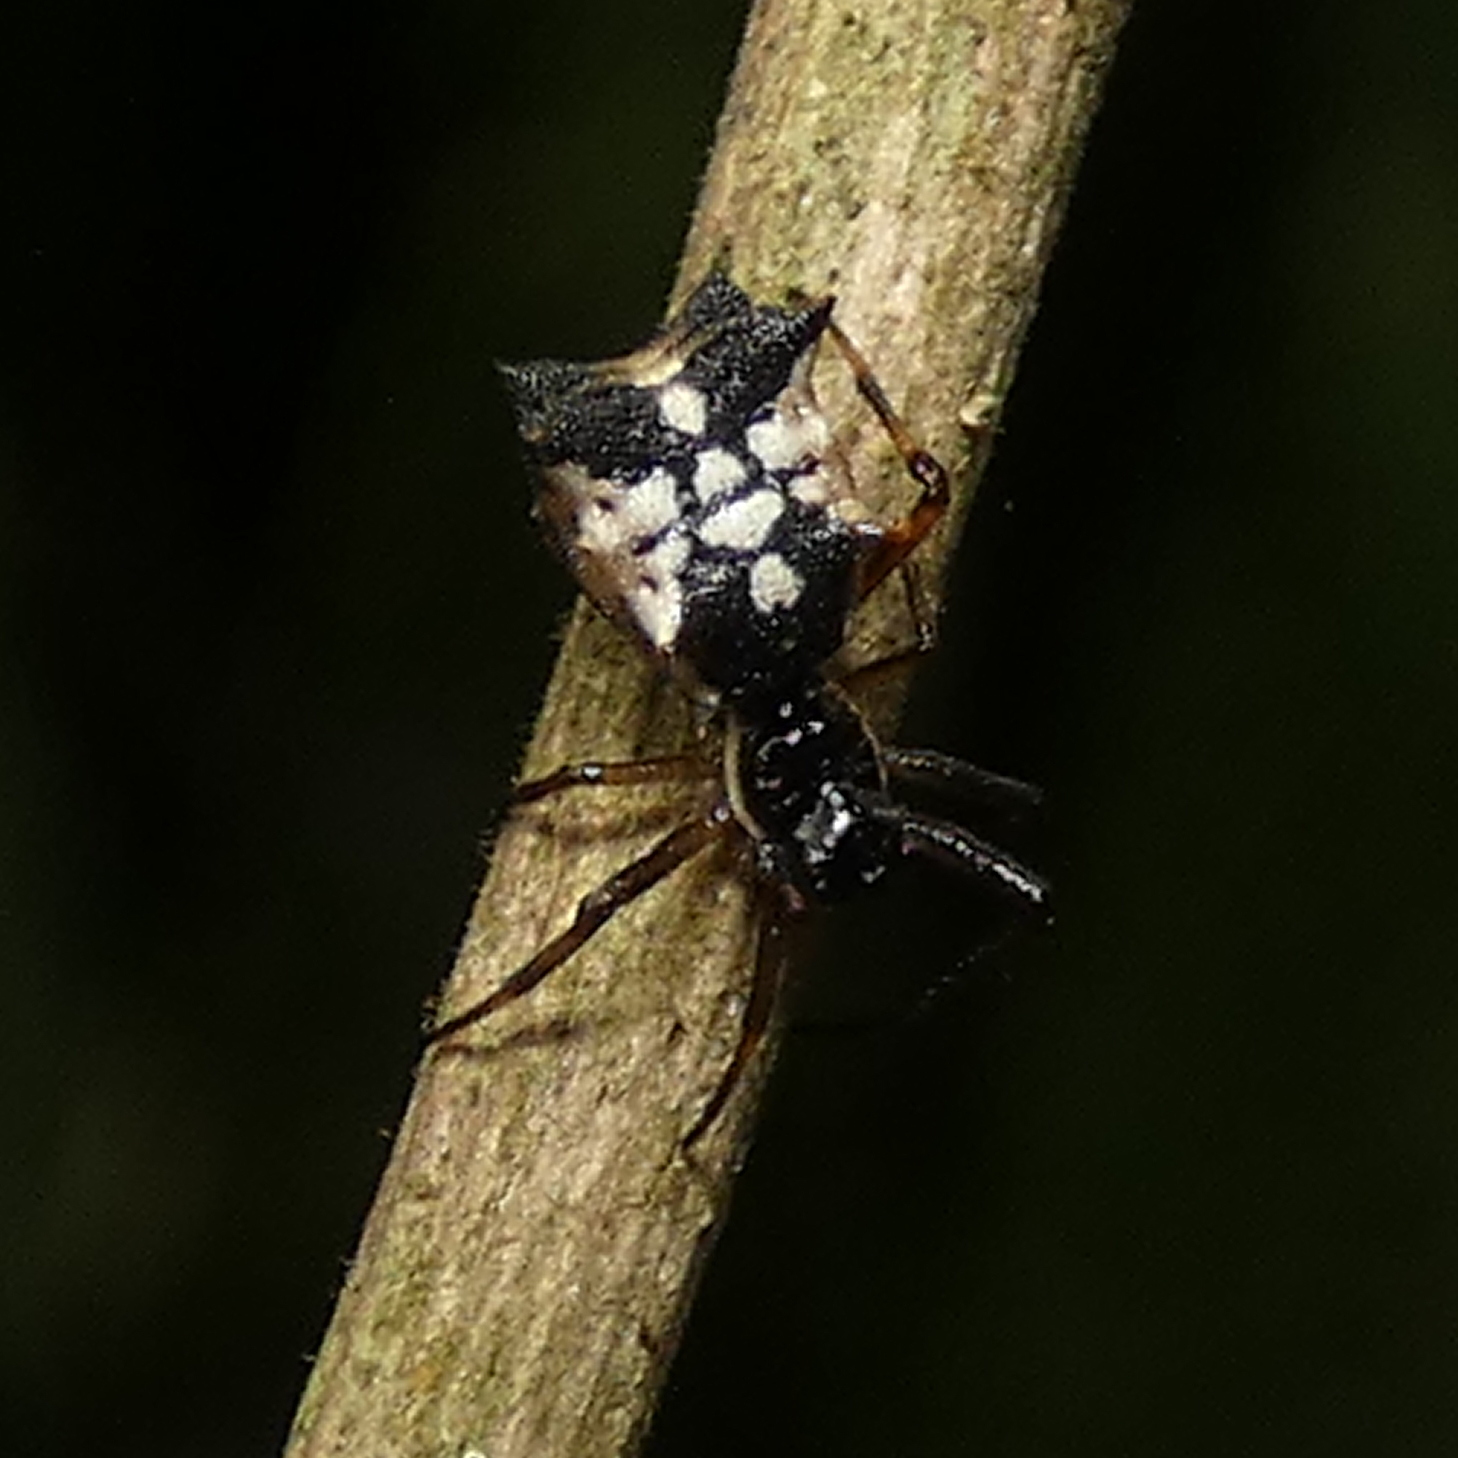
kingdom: Animalia
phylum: Arthropoda
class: Arachnida
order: Araneae
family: Araneidae
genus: Micrathena
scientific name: Micrathena picta
